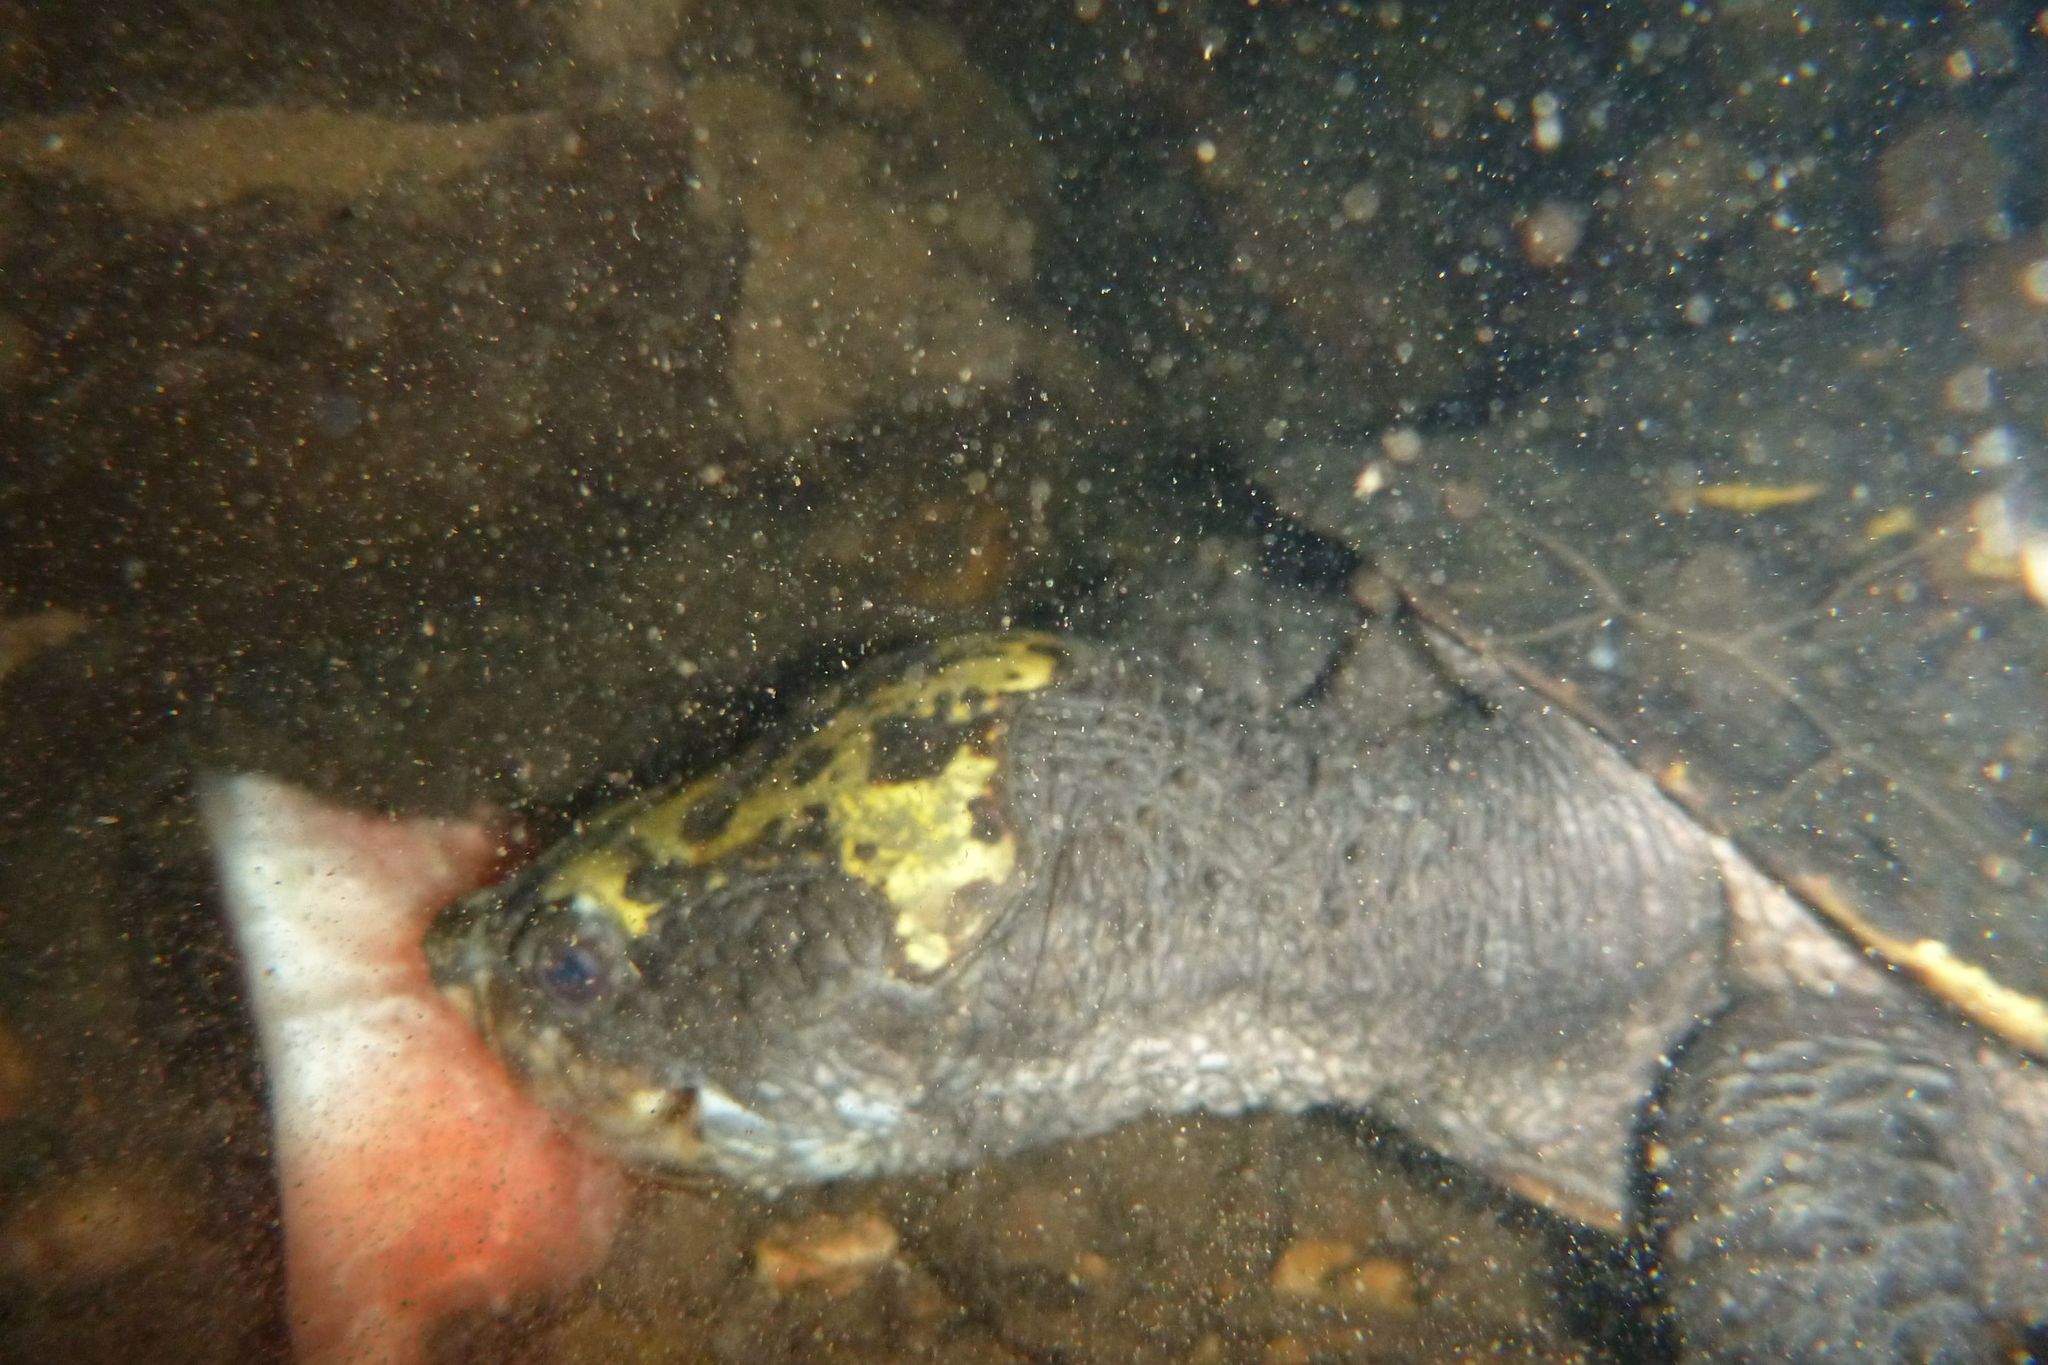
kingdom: Animalia
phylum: Chordata
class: Testudines
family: Chelidae
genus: Myuchelys
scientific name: Myuchelys latisternum
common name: Serrated snapping turtle
